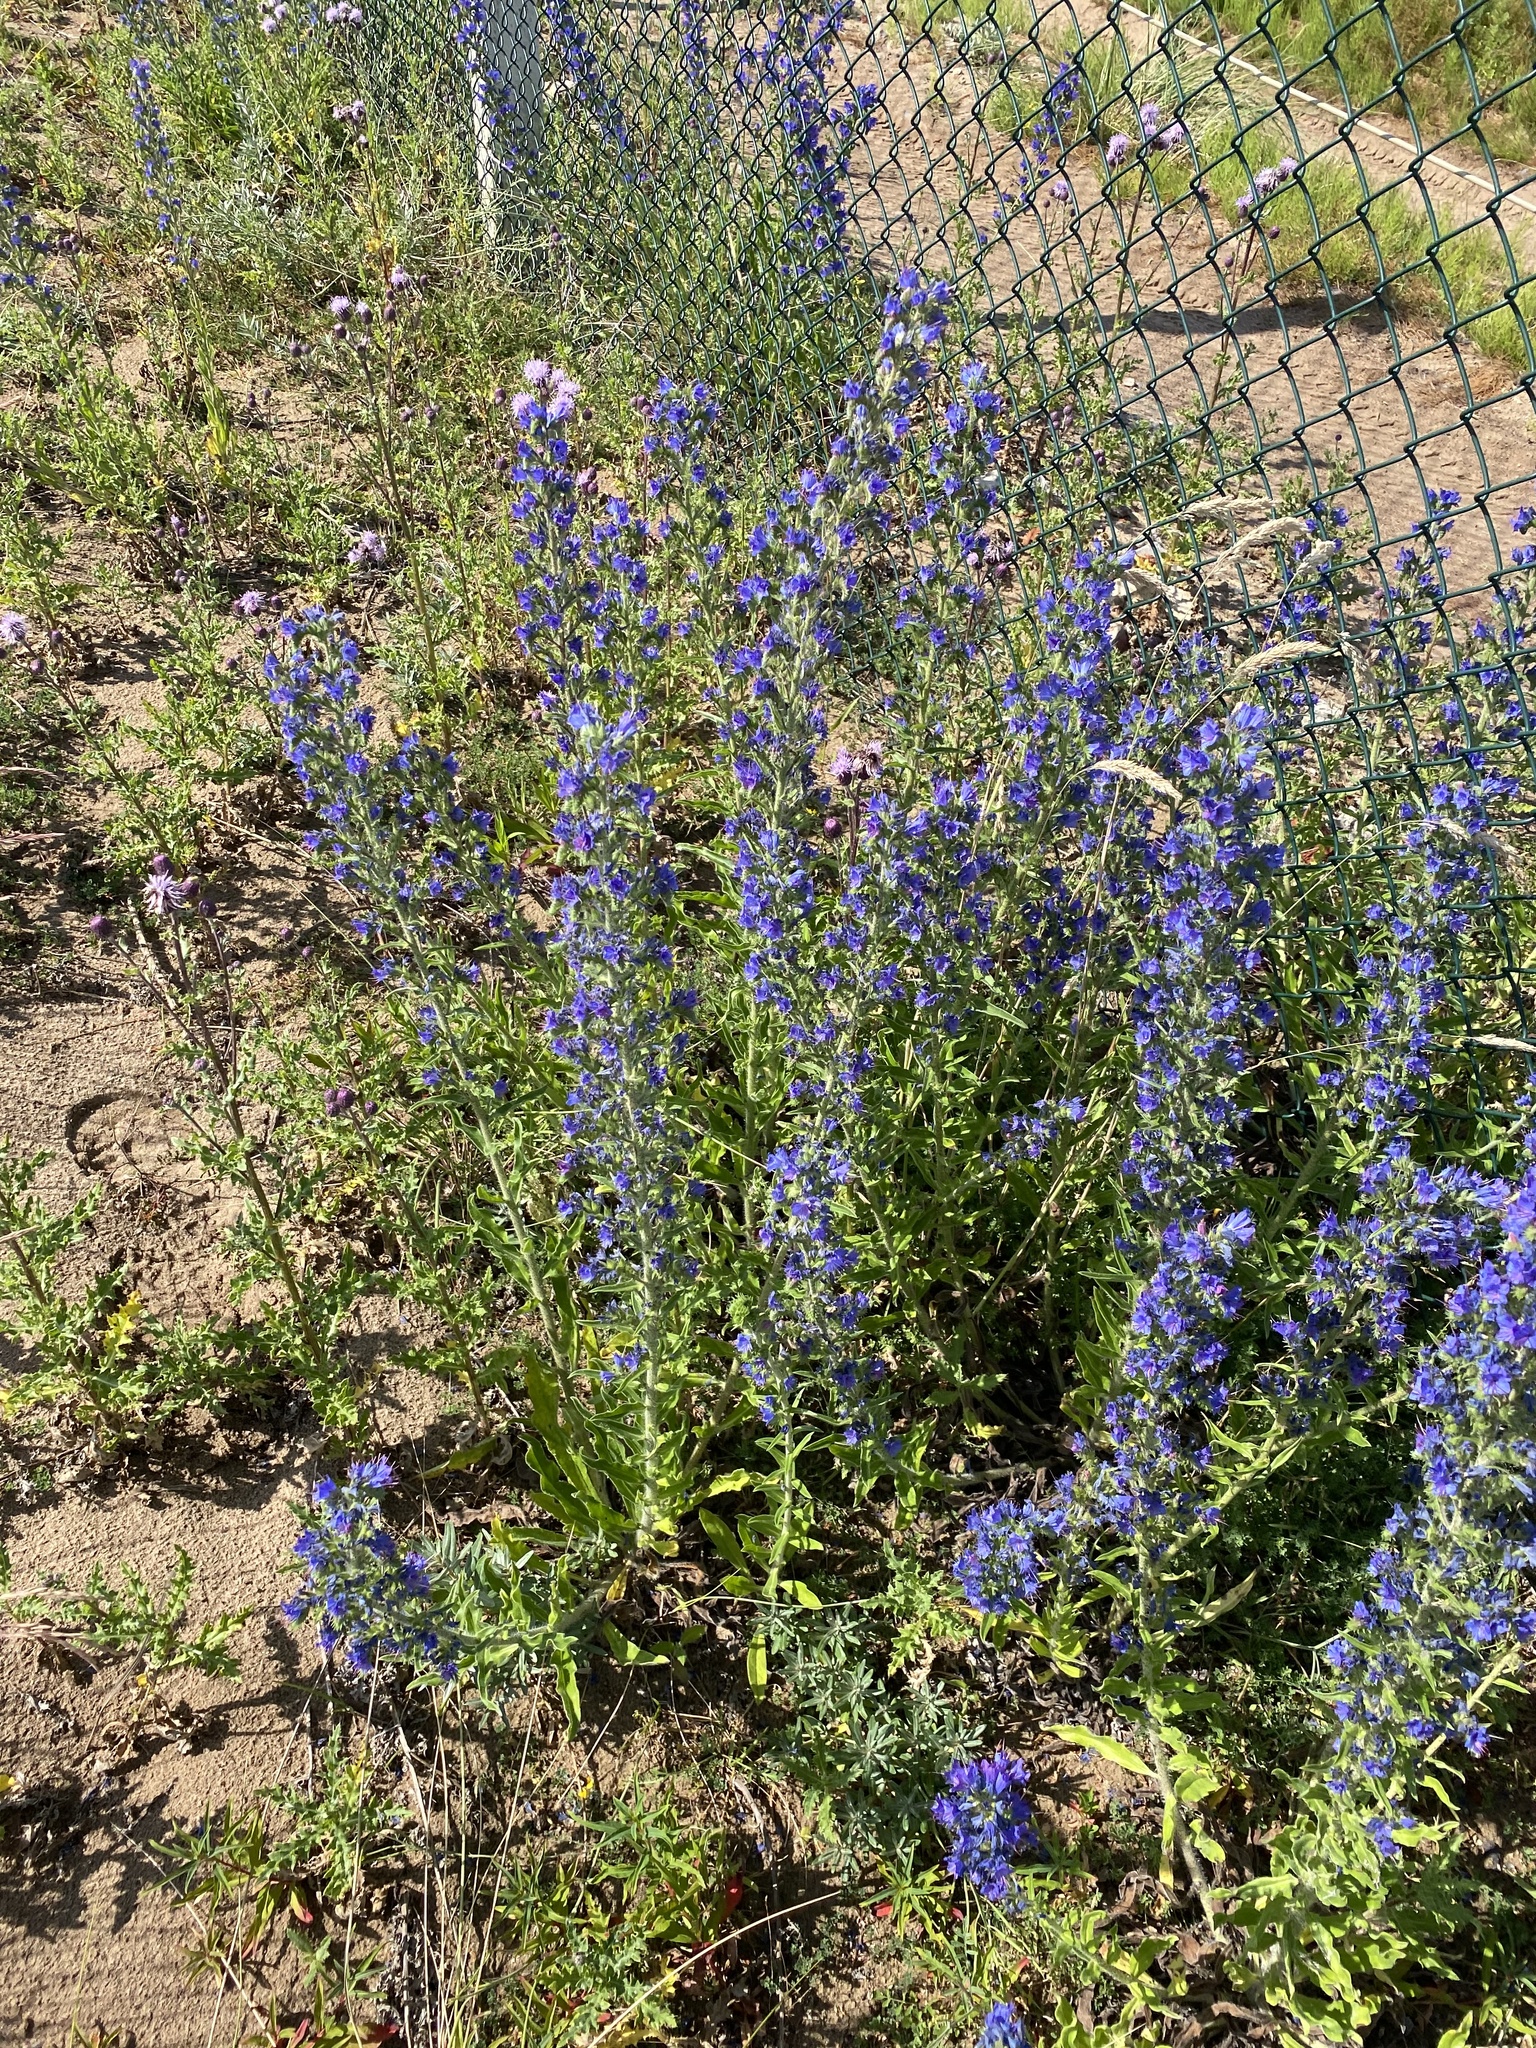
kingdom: Plantae
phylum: Tracheophyta
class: Magnoliopsida
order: Boraginales
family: Boraginaceae
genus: Echium
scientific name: Echium vulgare
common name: Common viper's bugloss
